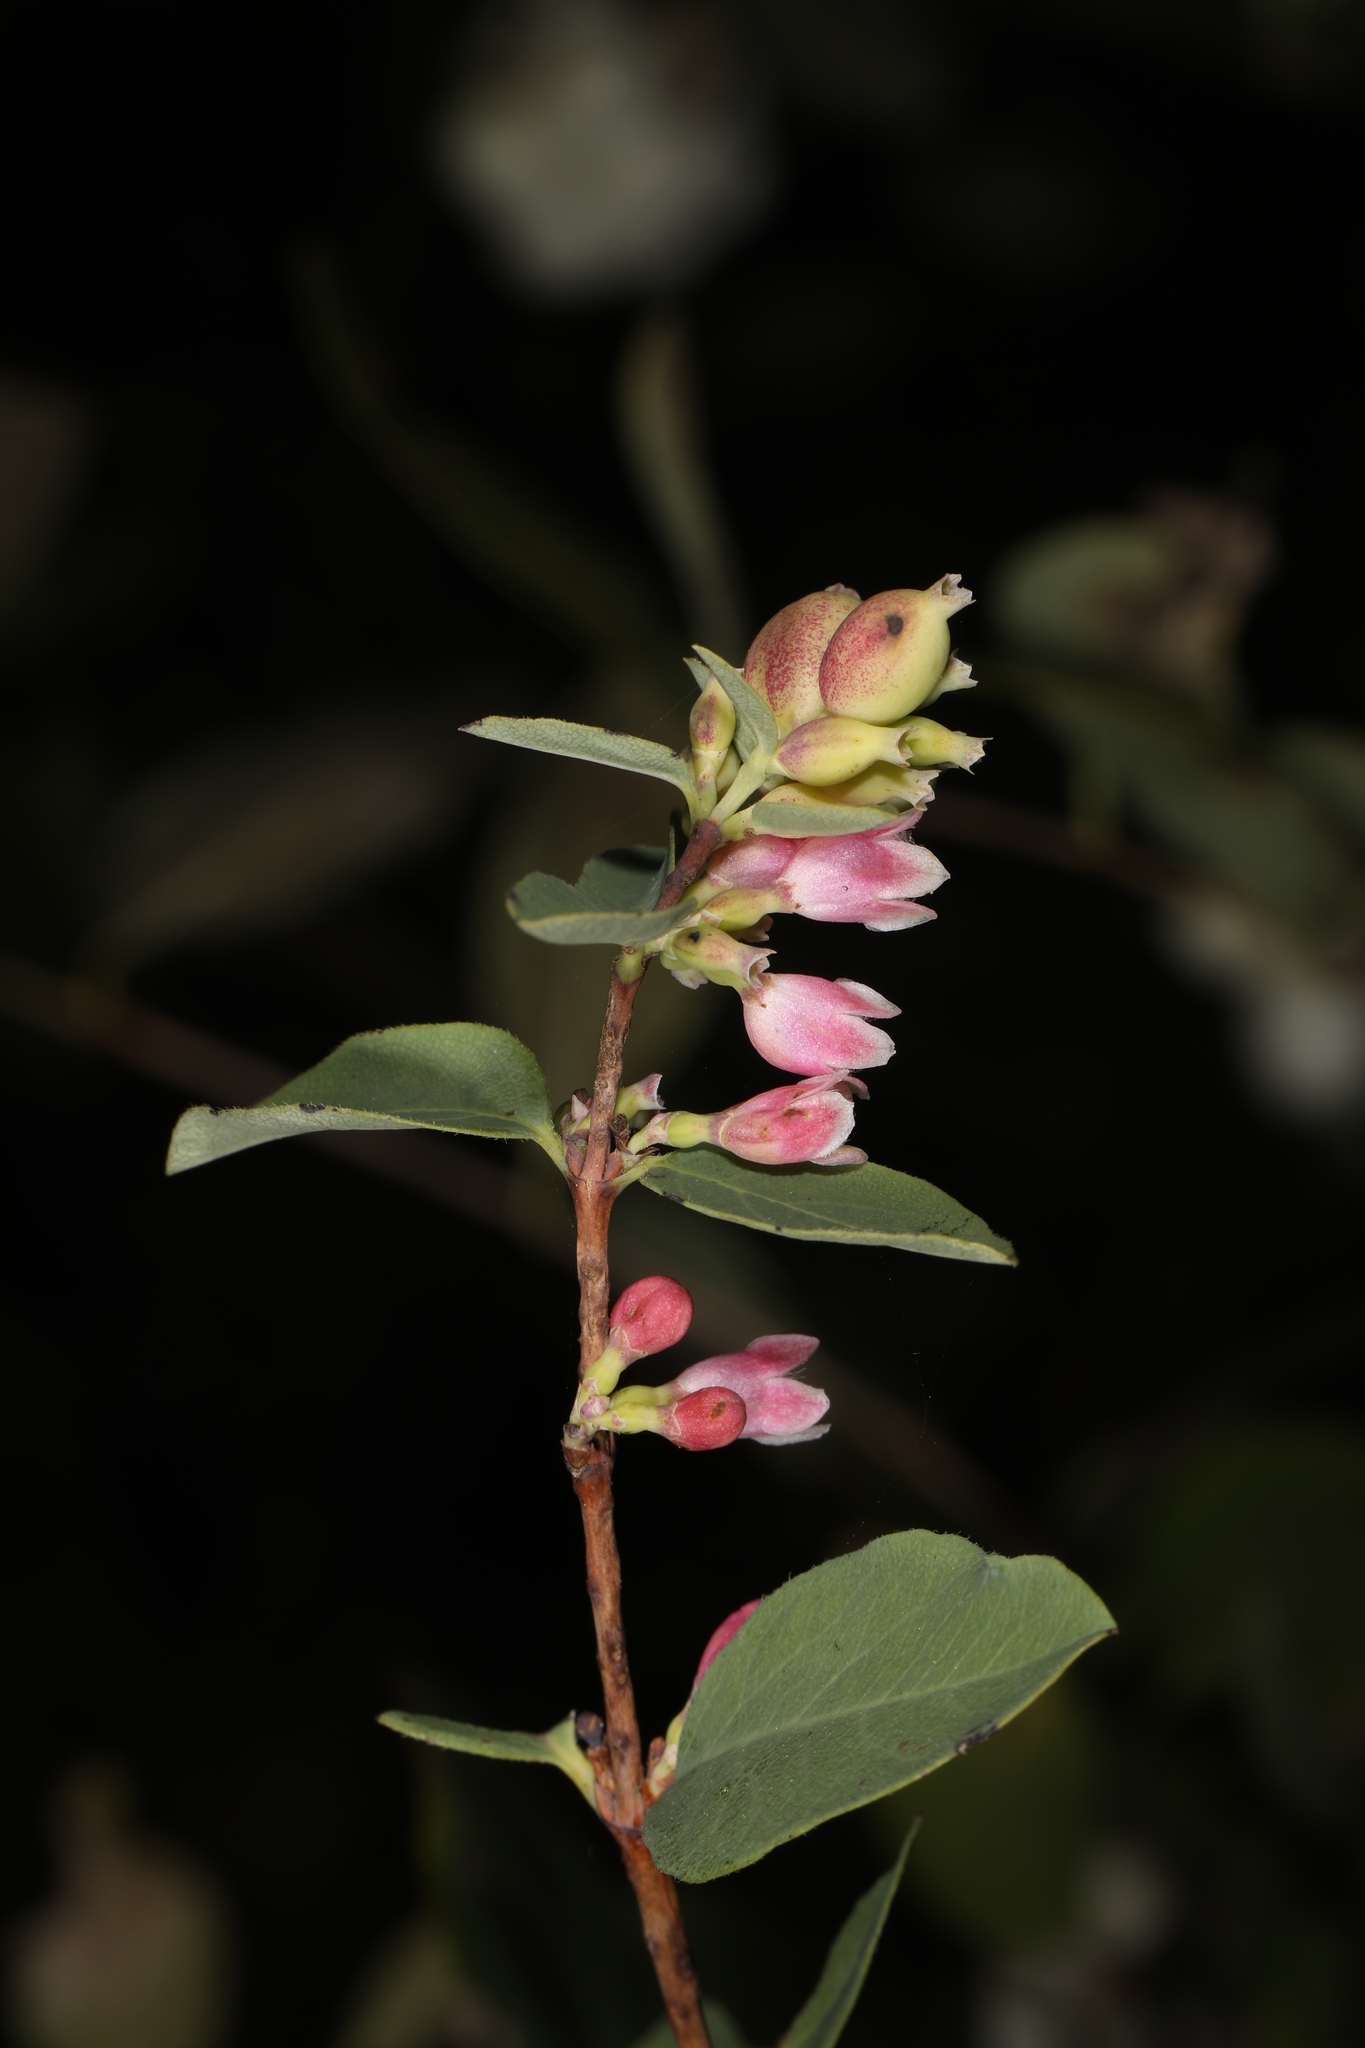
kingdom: Plantae
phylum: Tracheophyta
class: Magnoliopsida
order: Dipsacales
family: Caprifoliaceae
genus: Symphoricarpos
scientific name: Symphoricarpos albus
